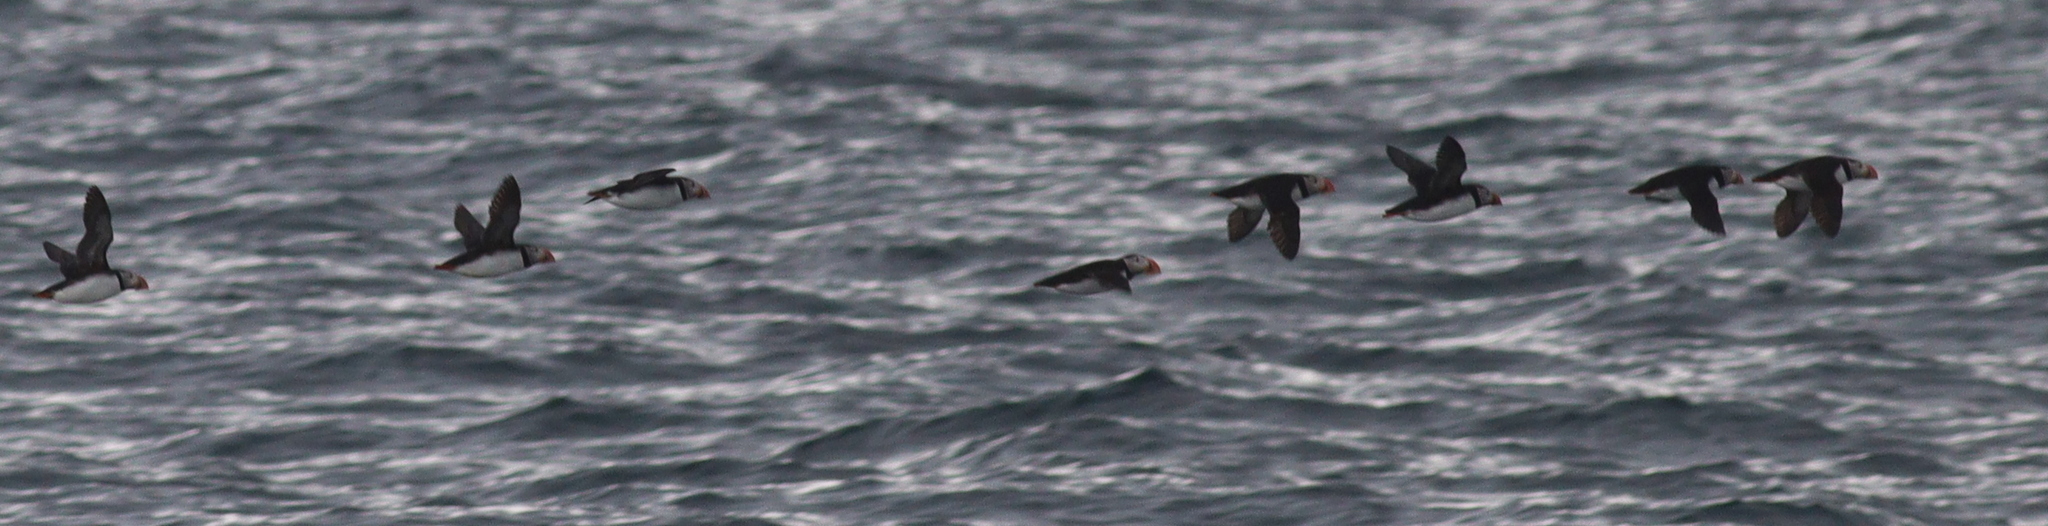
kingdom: Animalia
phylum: Chordata
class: Aves
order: Charadriiformes
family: Alcidae
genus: Fratercula
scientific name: Fratercula arctica
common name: Atlantic puffin
